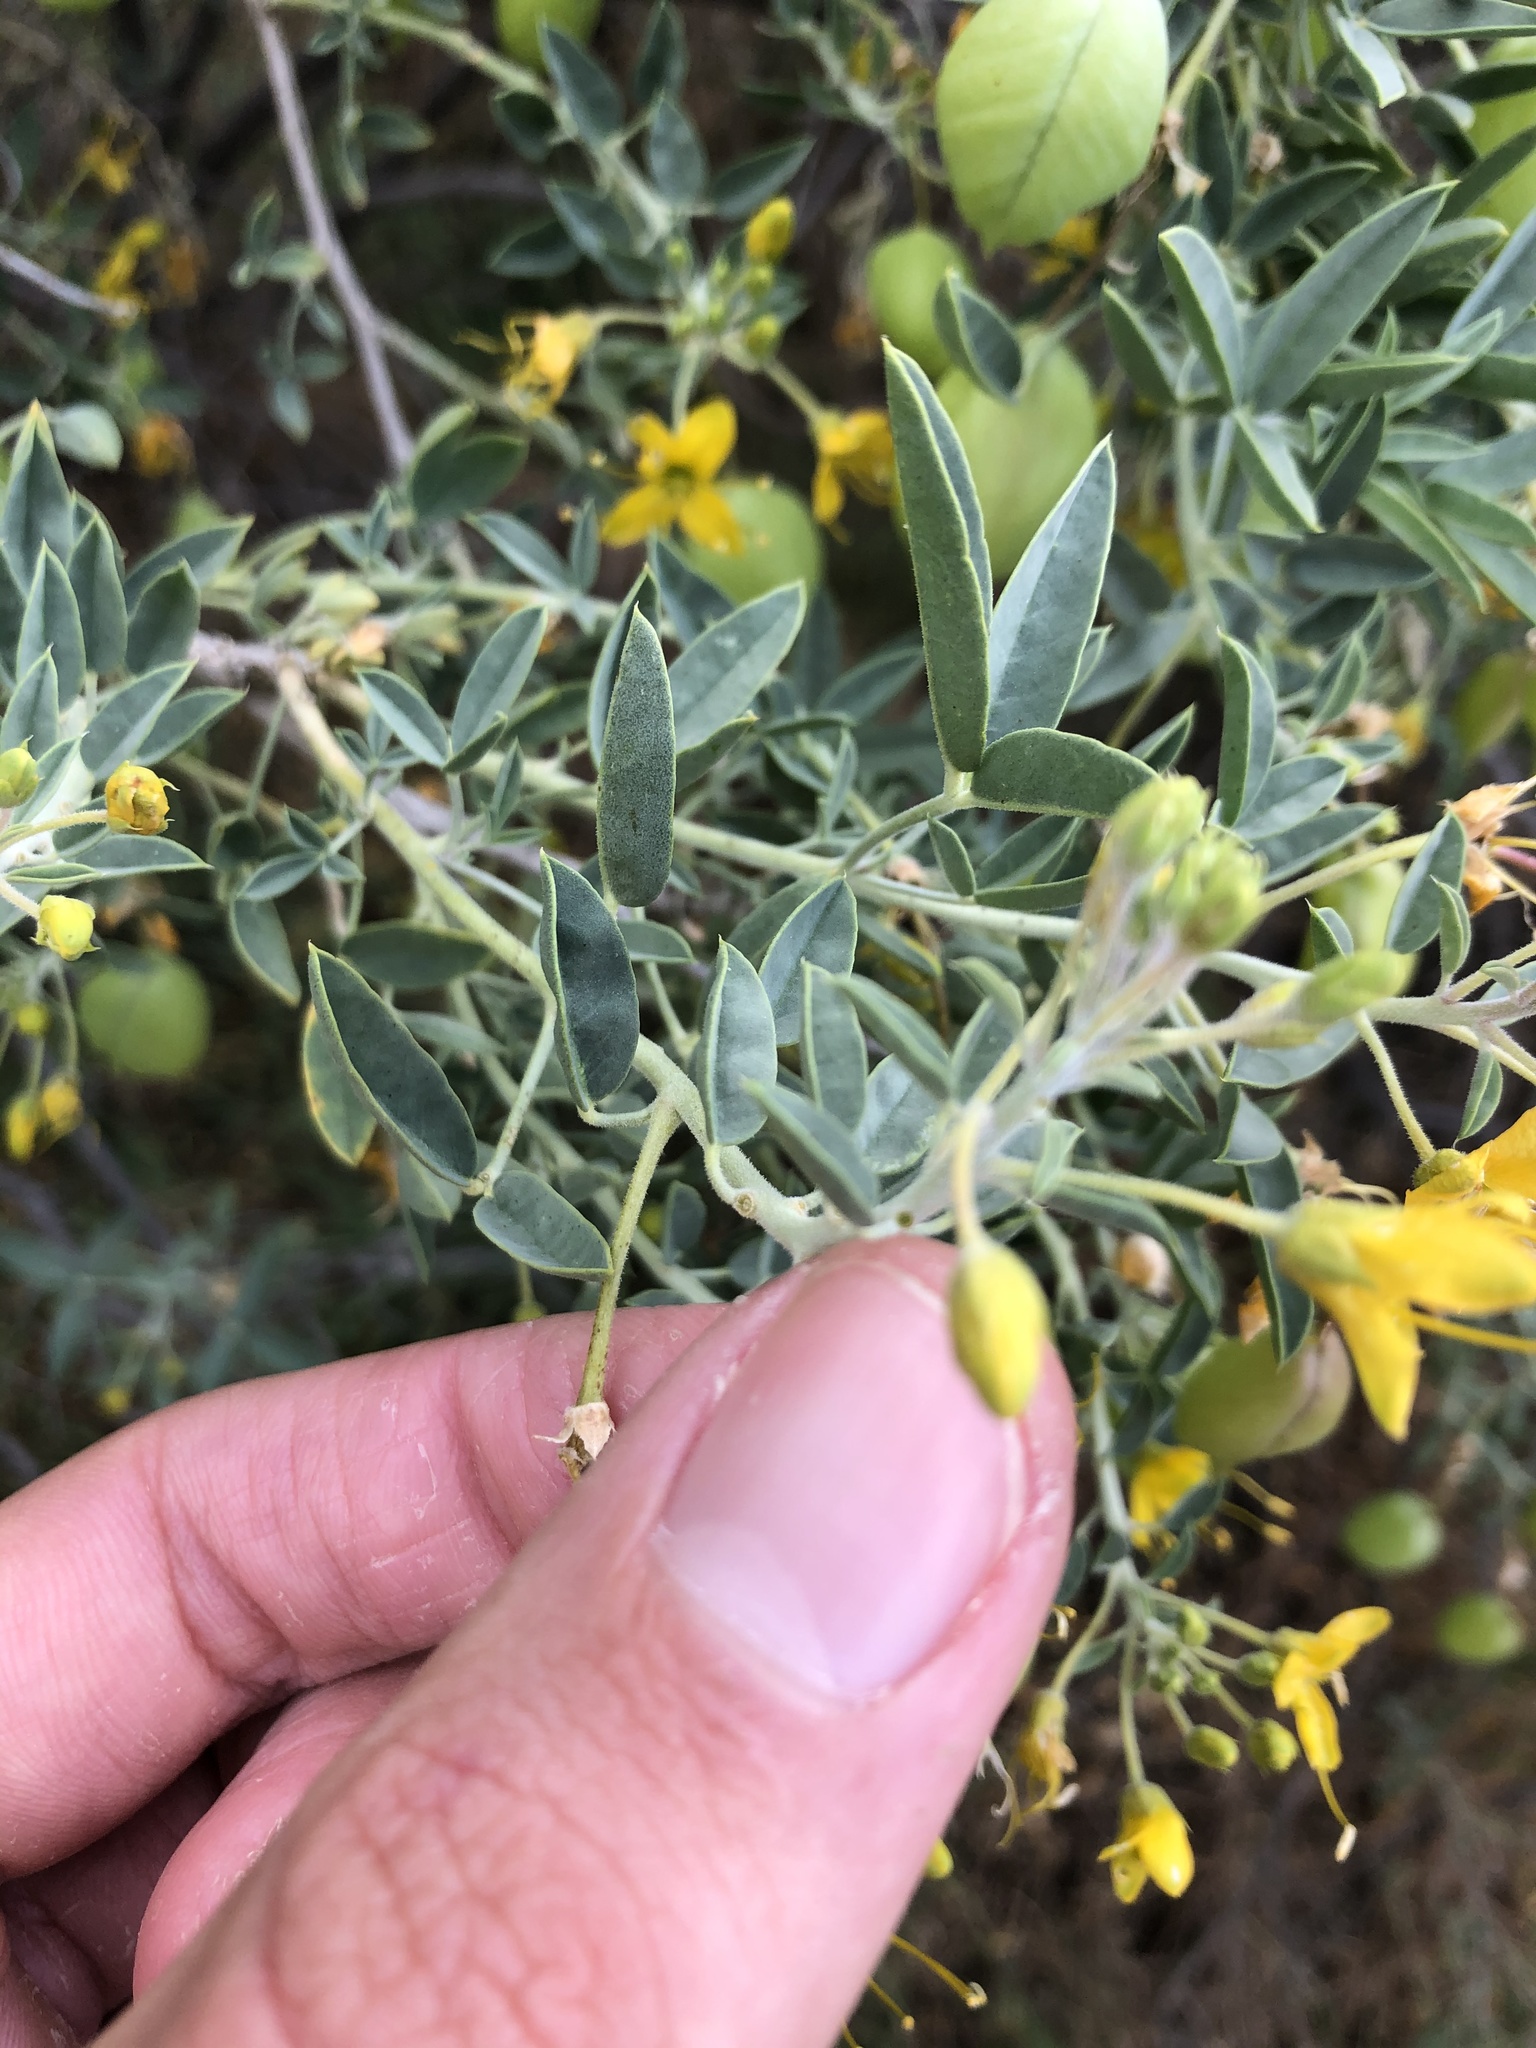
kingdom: Plantae
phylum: Tracheophyta
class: Magnoliopsida
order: Brassicales
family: Cleomaceae
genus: Cleomella
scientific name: Cleomella arborea
